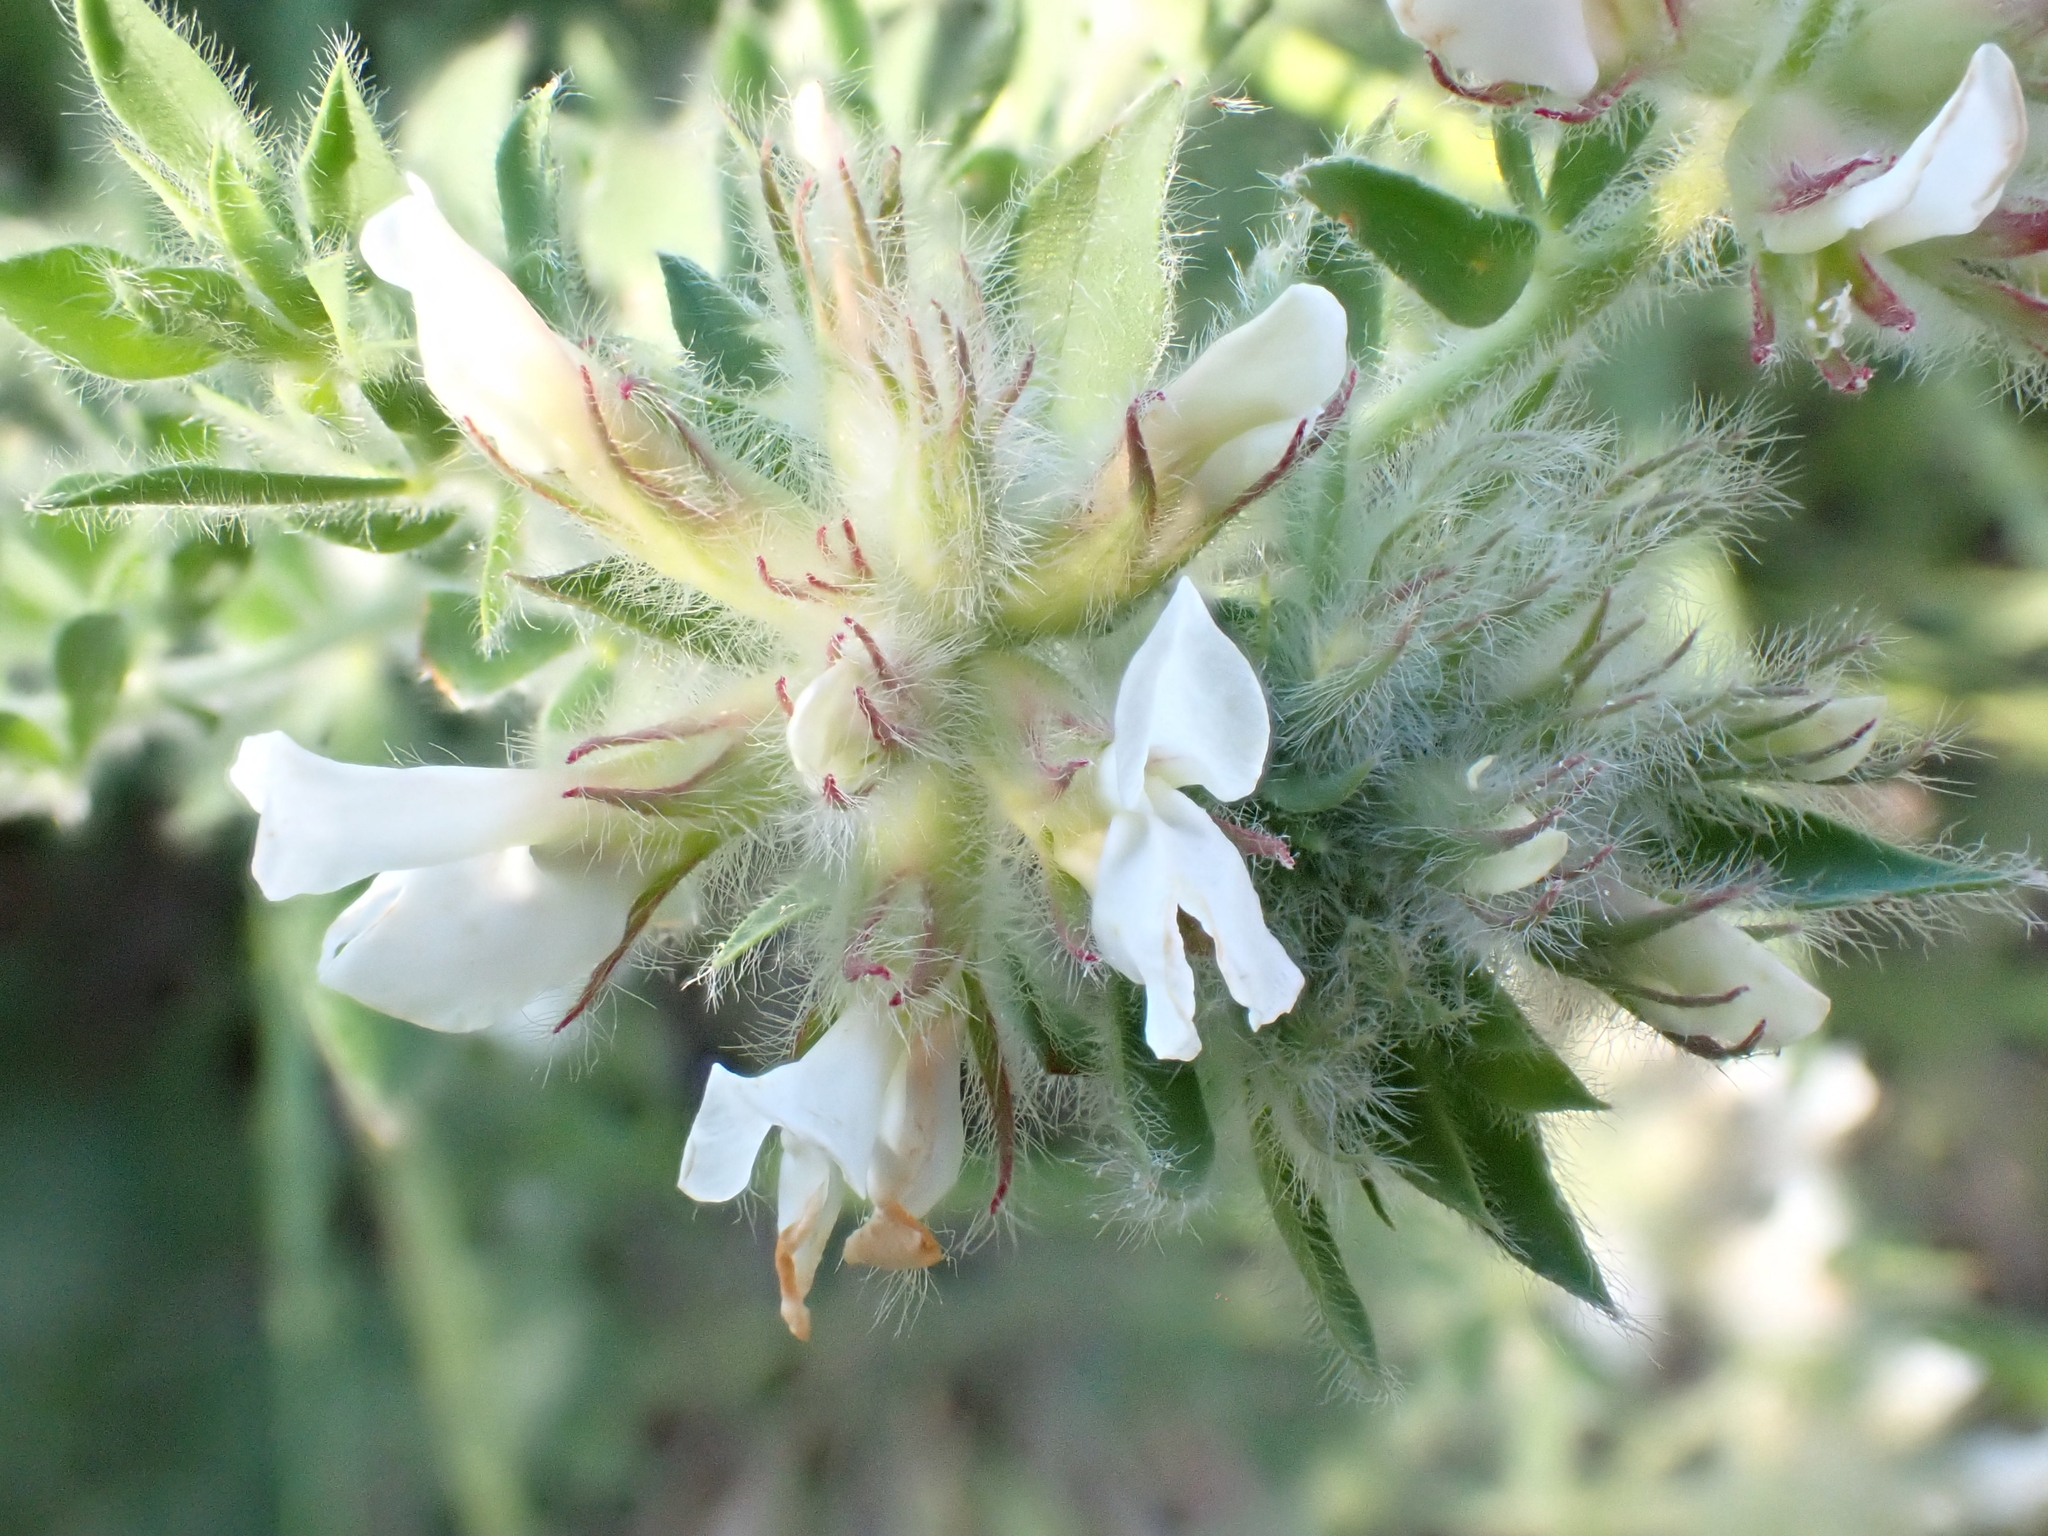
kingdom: Plantae
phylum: Tracheophyta
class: Magnoliopsida
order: Fabales
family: Fabaceae
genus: Lotus
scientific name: Lotus hirsutus
